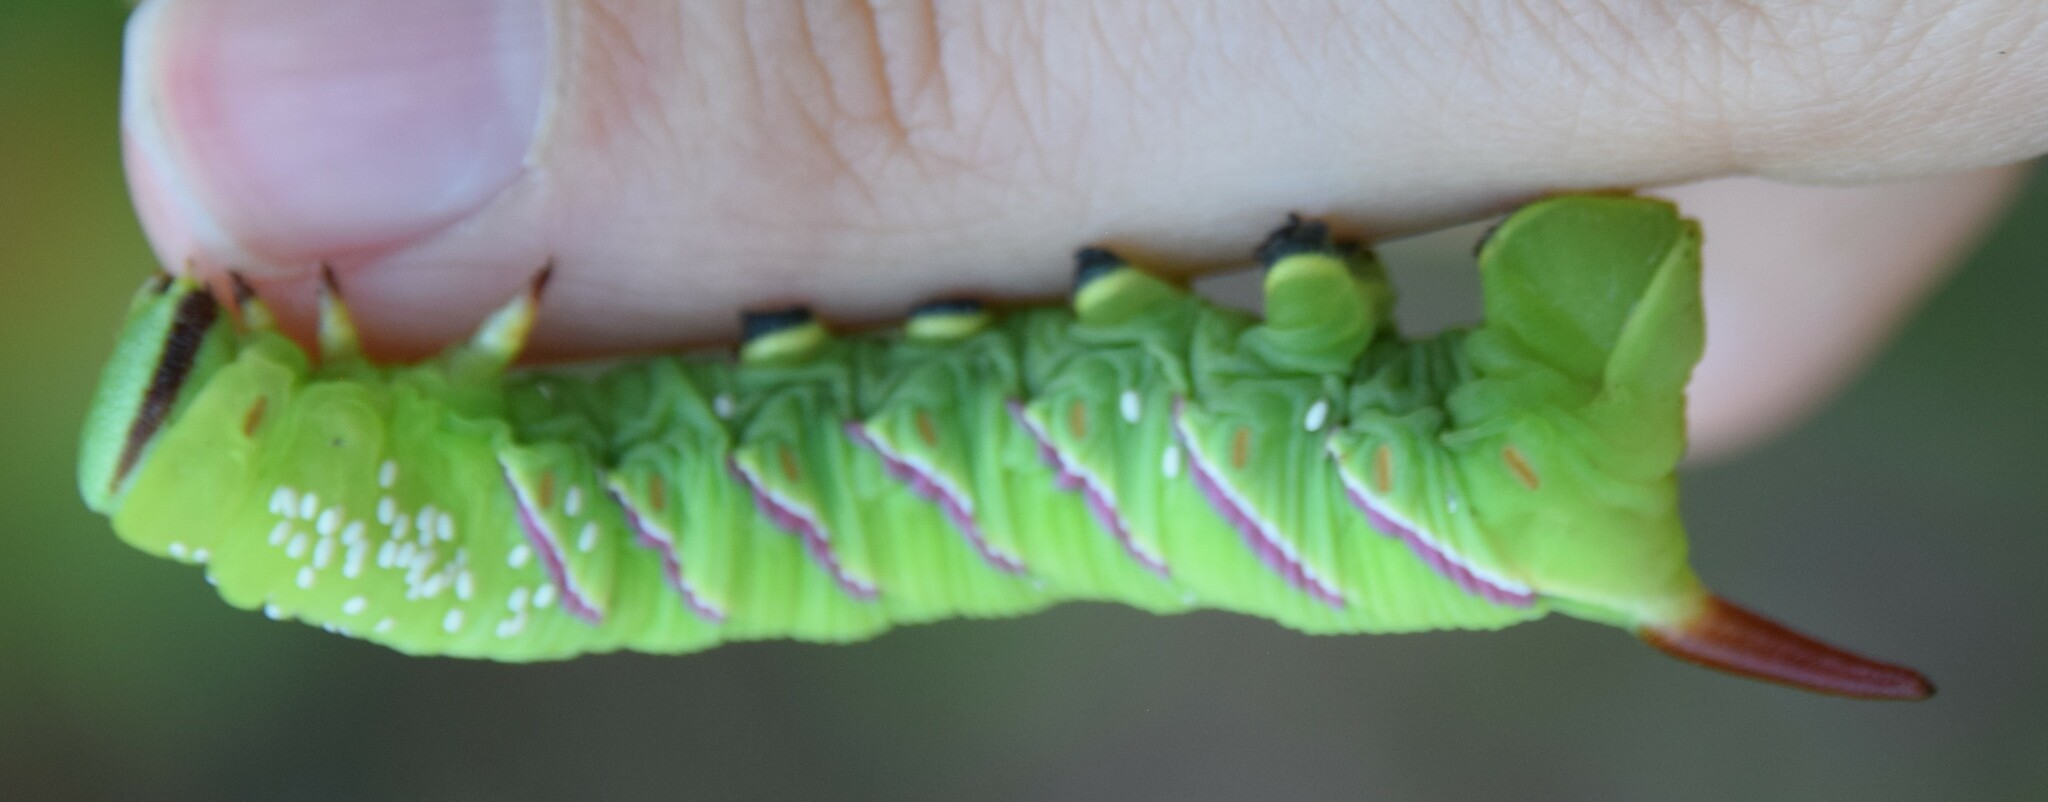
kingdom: Animalia
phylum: Arthropoda
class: Insecta
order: Lepidoptera
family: Sphingidae
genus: Sphinx
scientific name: Sphinx drupiferarum
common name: Wild cherry sphinx
